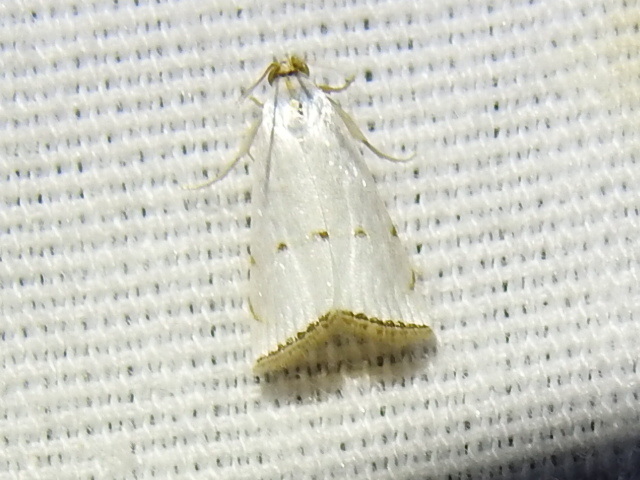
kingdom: Animalia
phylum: Arthropoda
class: Insecta
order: Lepidoptera
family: Crambidae
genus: Argyria
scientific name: Argyria pusillalis
